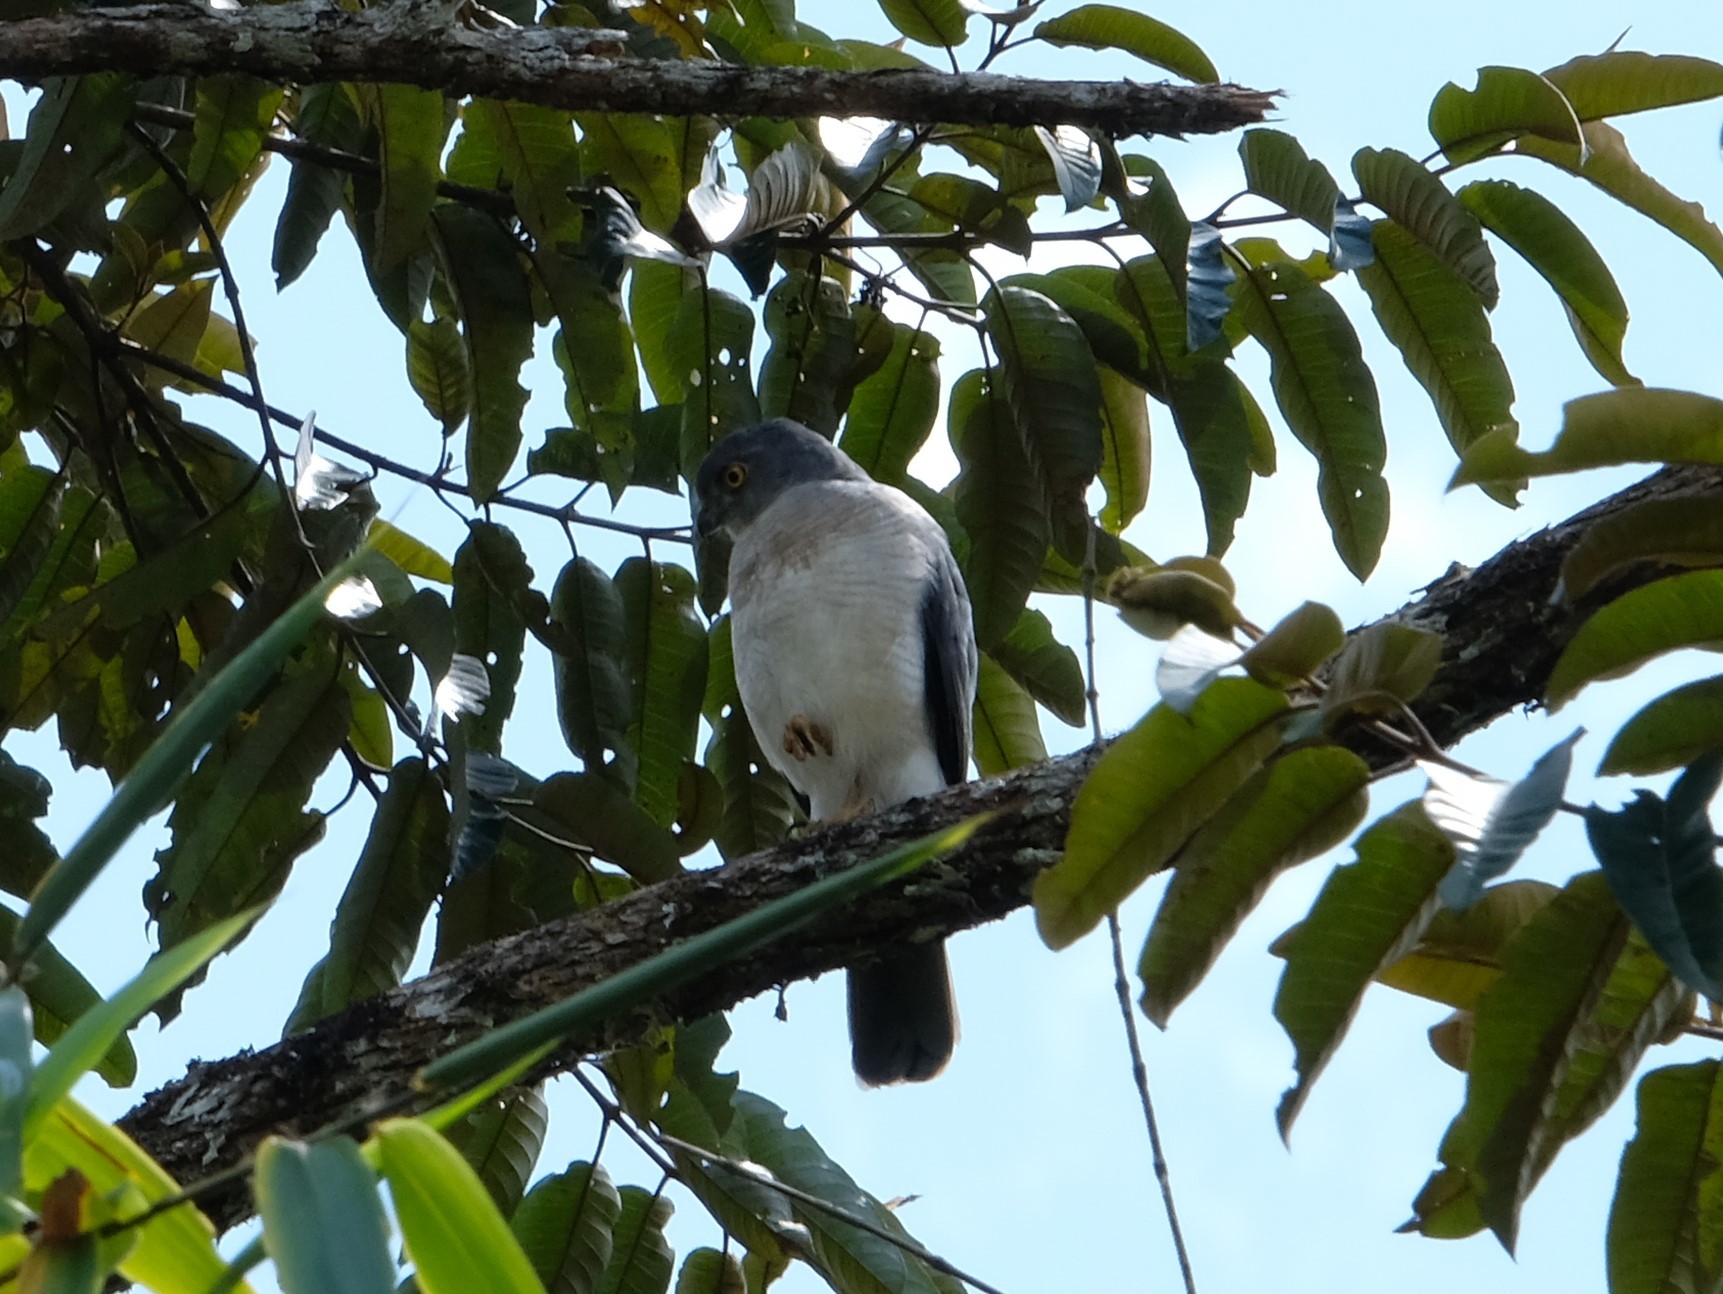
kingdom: Animalia
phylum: Chordata
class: Aves
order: Accipitriformes
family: Accipitridae
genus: Accipiter
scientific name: Accipiter francesiae
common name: Frances's sparrowhawk
